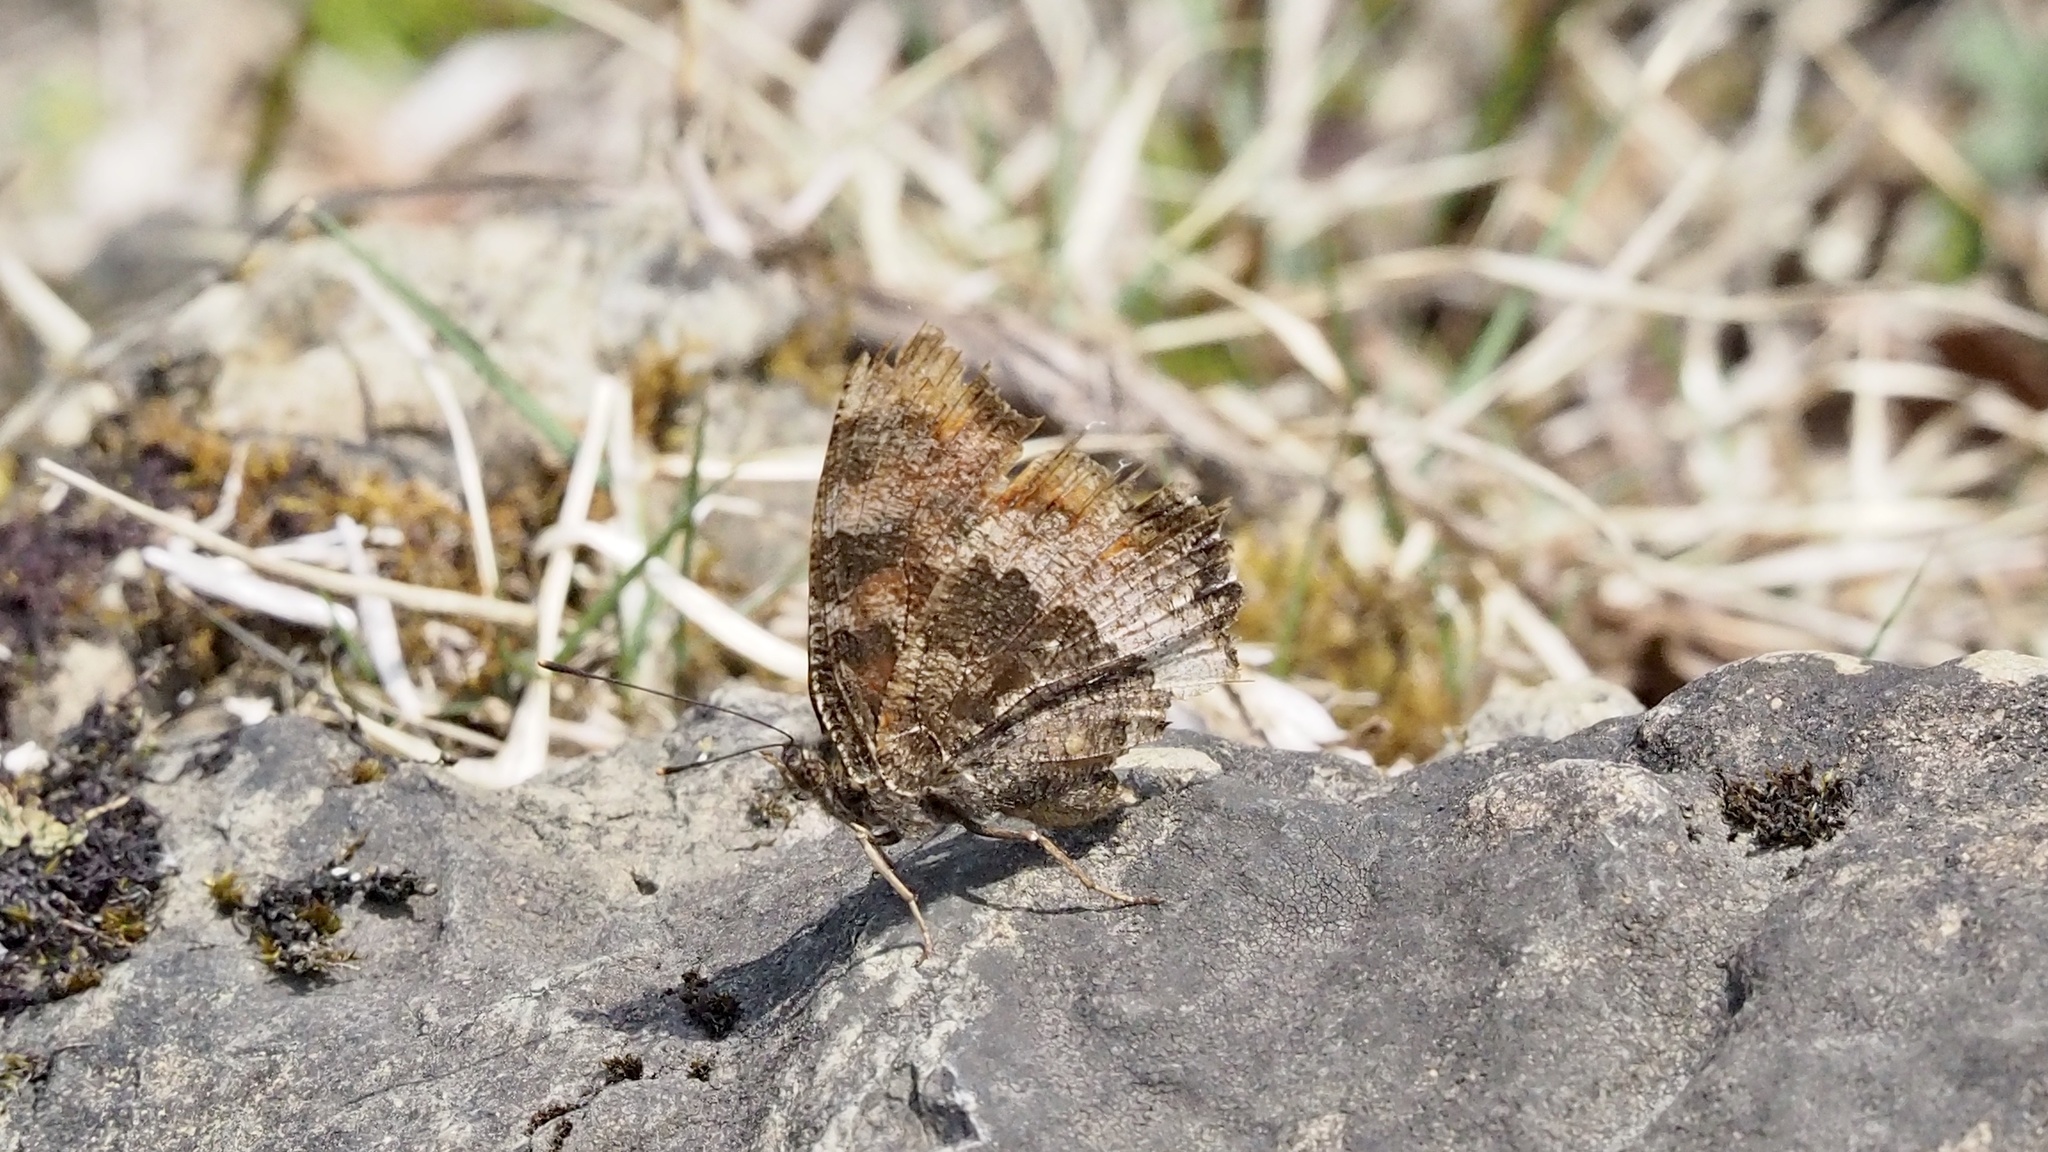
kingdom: Animalia
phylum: Arthropoda
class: Insecta
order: Lepidoptera
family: Nymphalidae
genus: Nymphalis
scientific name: Nymphalis xanthomelas
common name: Scarce tortoiseshell
